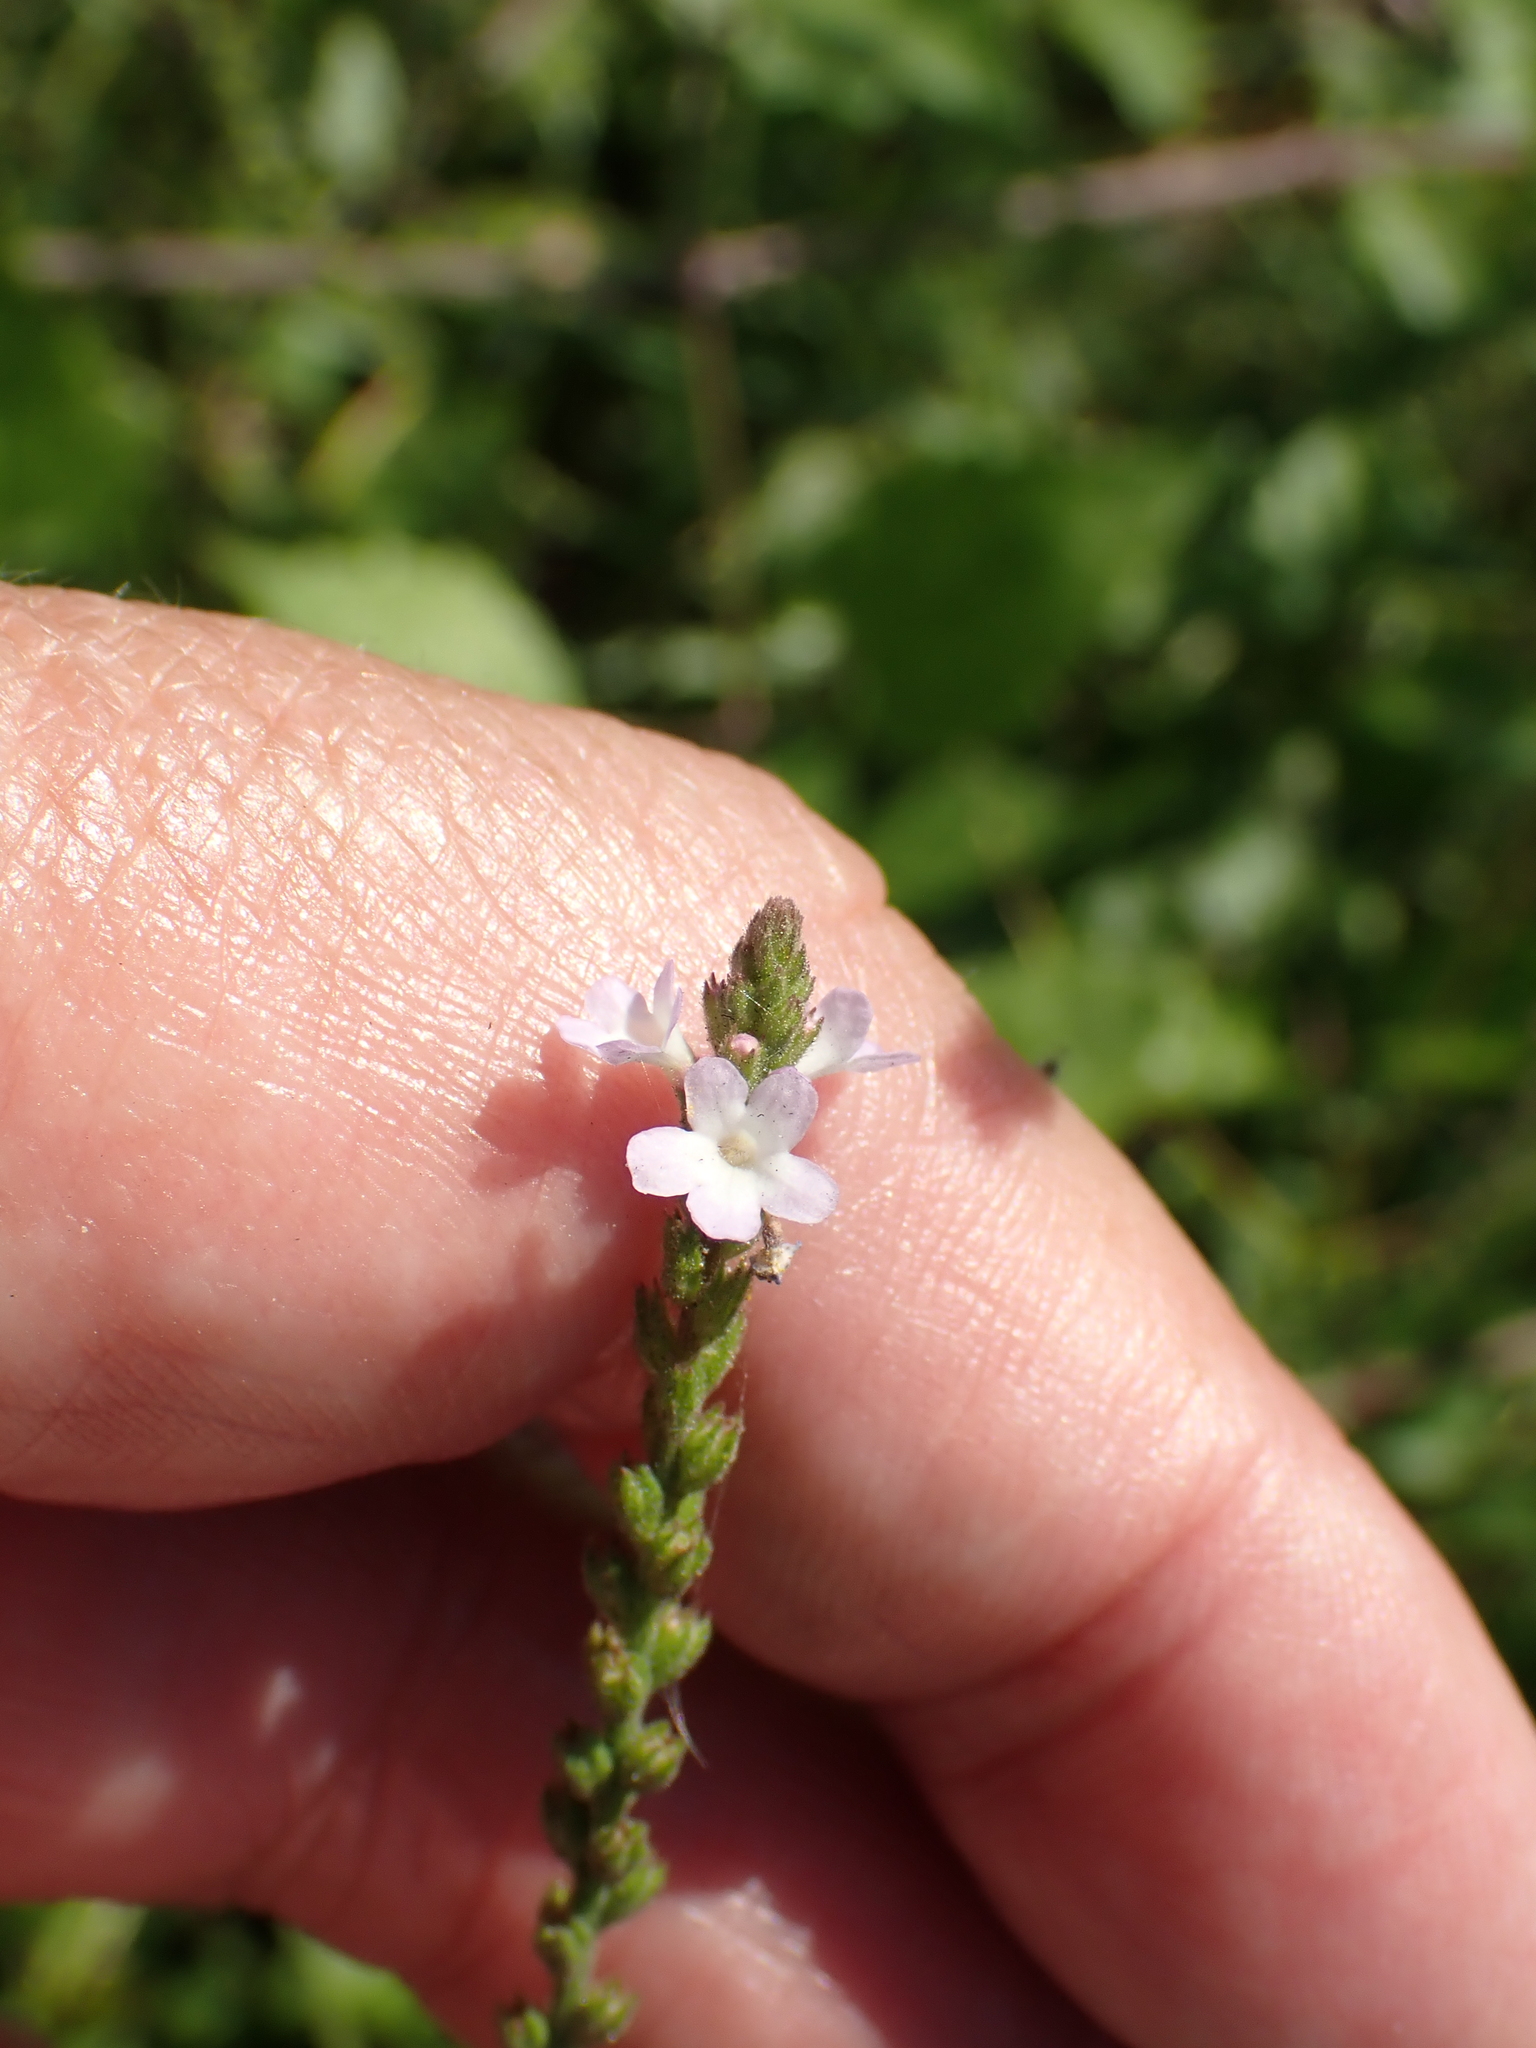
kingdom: Plantae
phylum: Tracheophyta
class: Magnoliopsida
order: Lamiales
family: Verbenaceae
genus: Verbena
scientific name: Verbena officinalis
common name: Vervain
